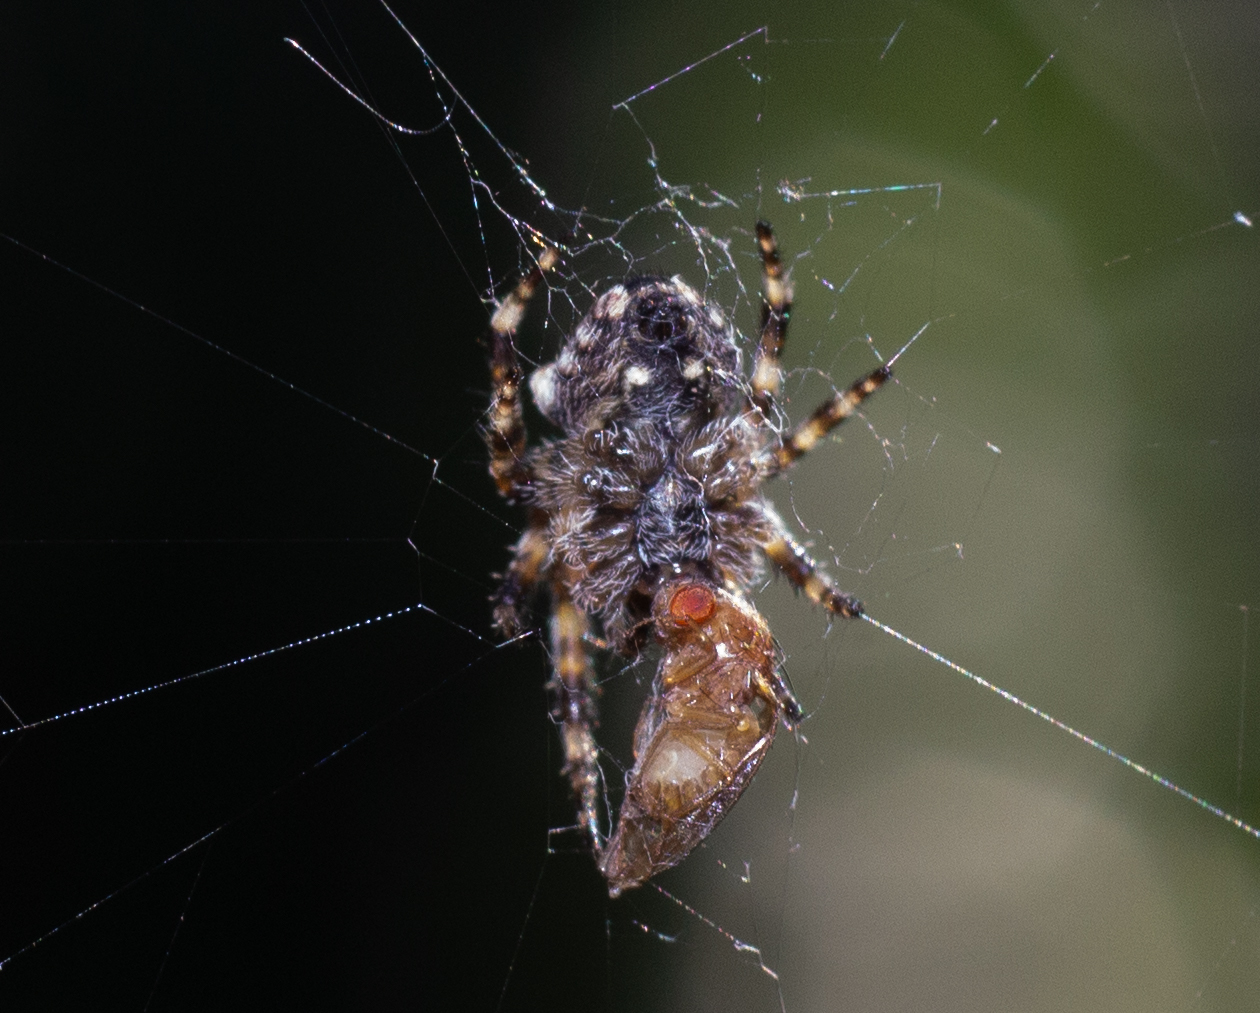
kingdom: Animalia
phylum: Arthropoda
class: Arachnida
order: Araneae
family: Araneidae
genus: Araneus
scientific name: Araneus angulatus
